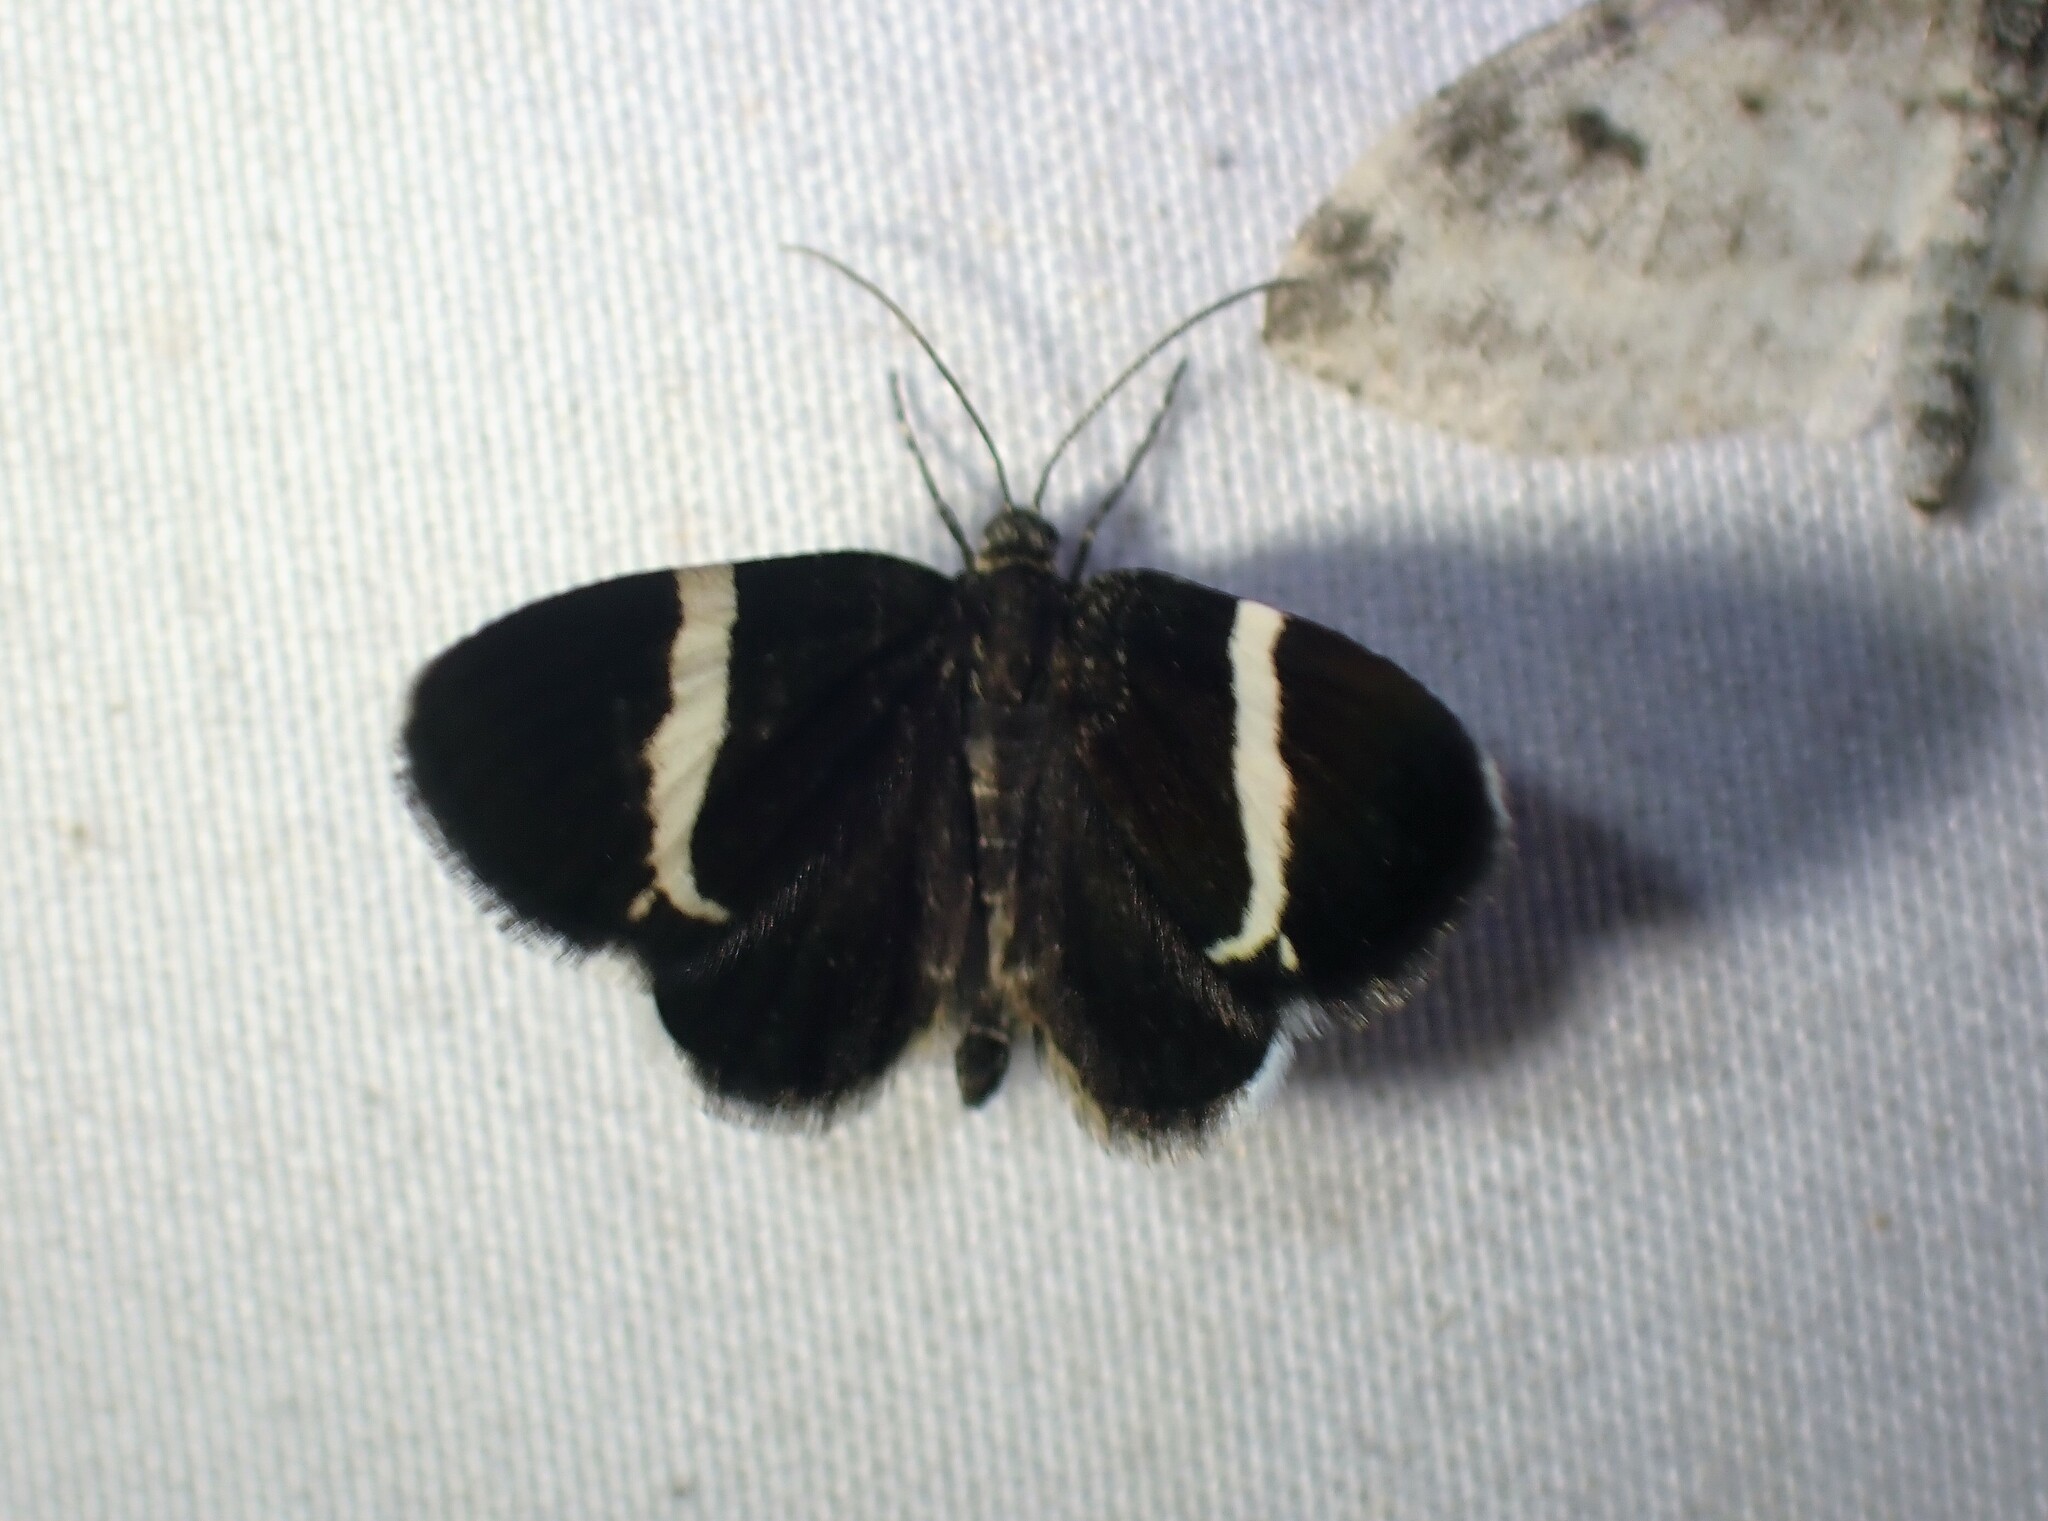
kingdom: Animalia
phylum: Arthropoda
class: Insecta
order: Lepidoptera
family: Geometridae
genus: Trichodezia
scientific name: Trichodezia albovittata
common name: White striped black
